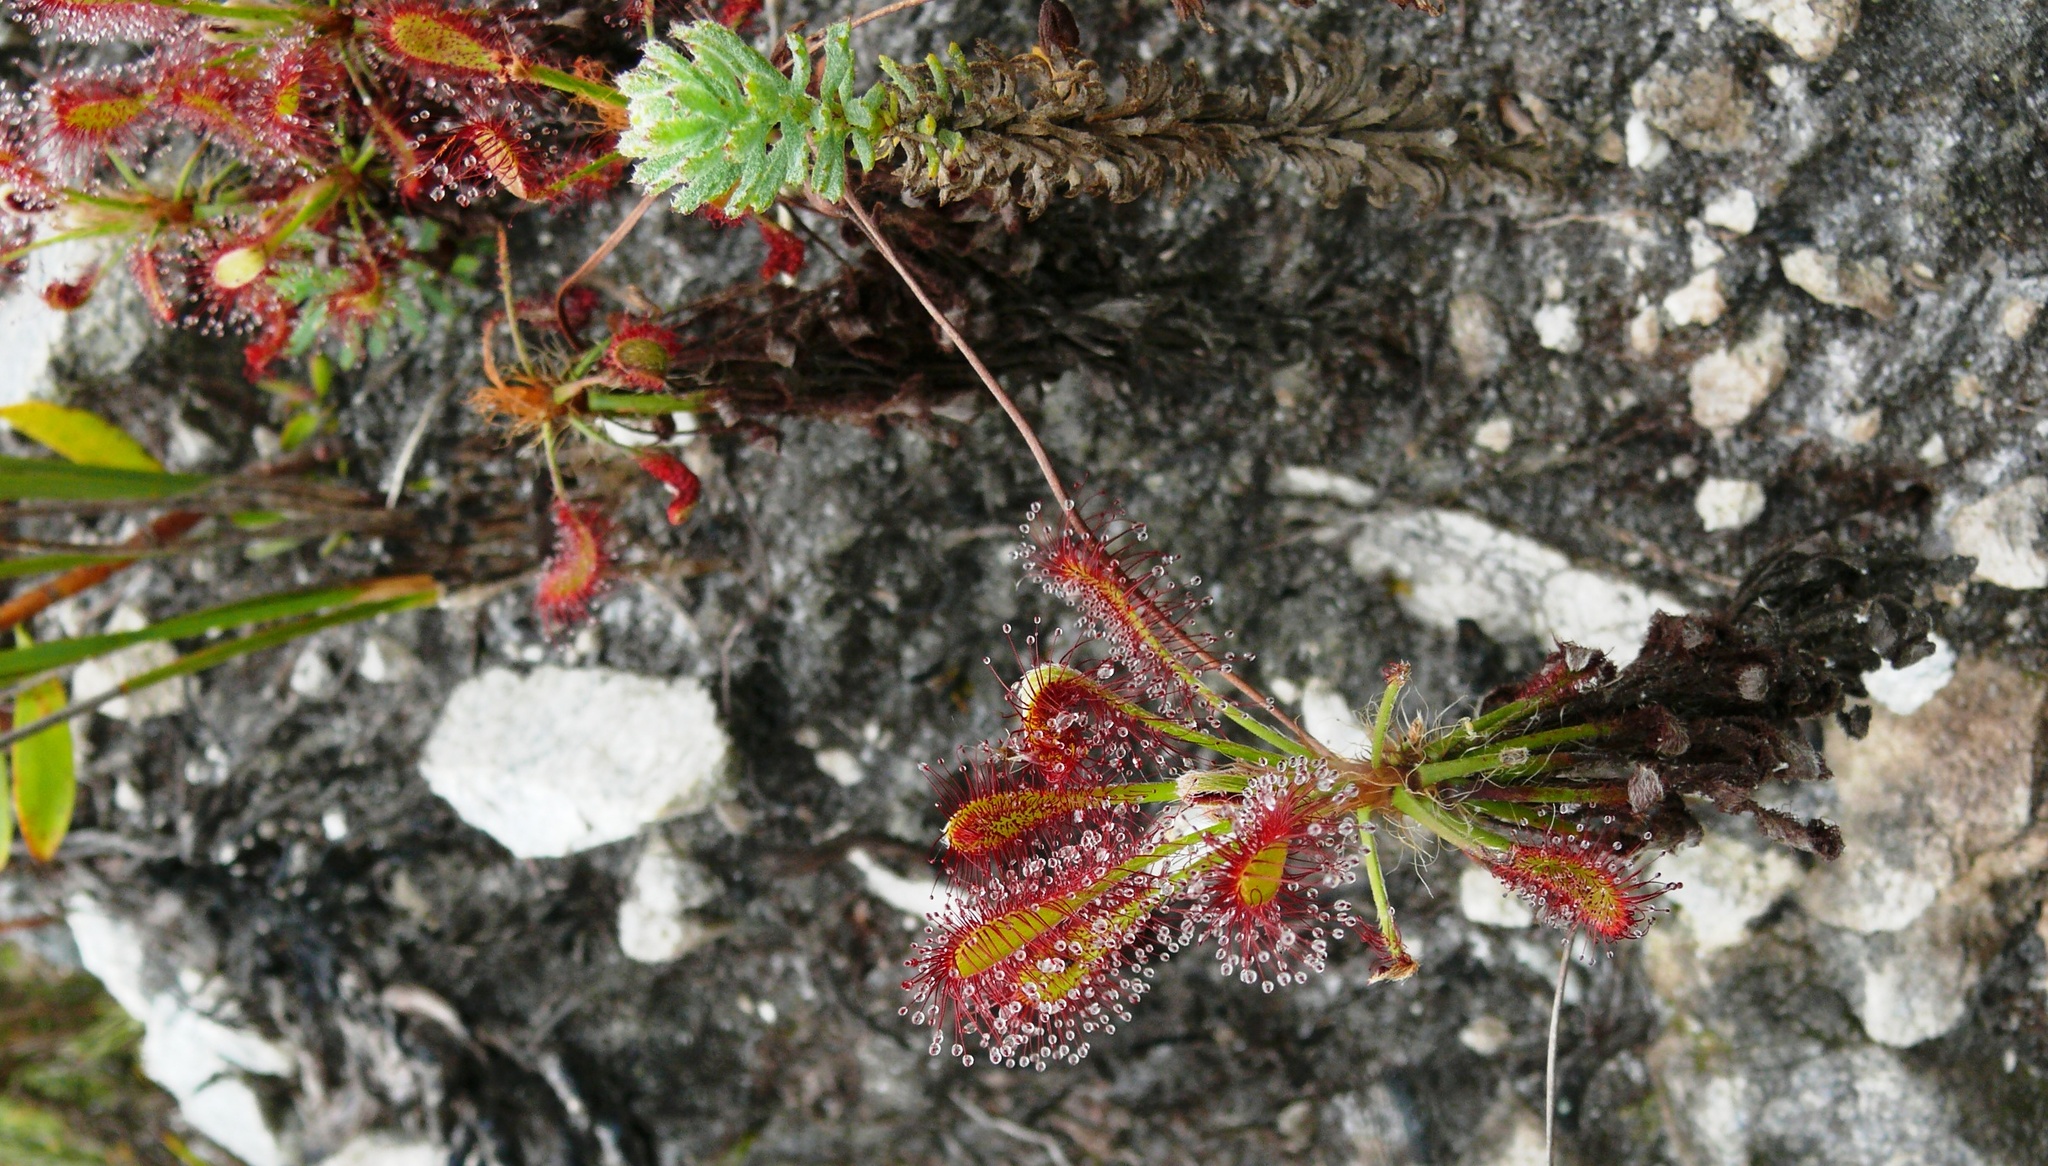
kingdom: Plantae
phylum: Tracheophyta
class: Magnoliopsida
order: Caryophyllales
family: Droseraceae
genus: Drosera
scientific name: Drosera glabripes
